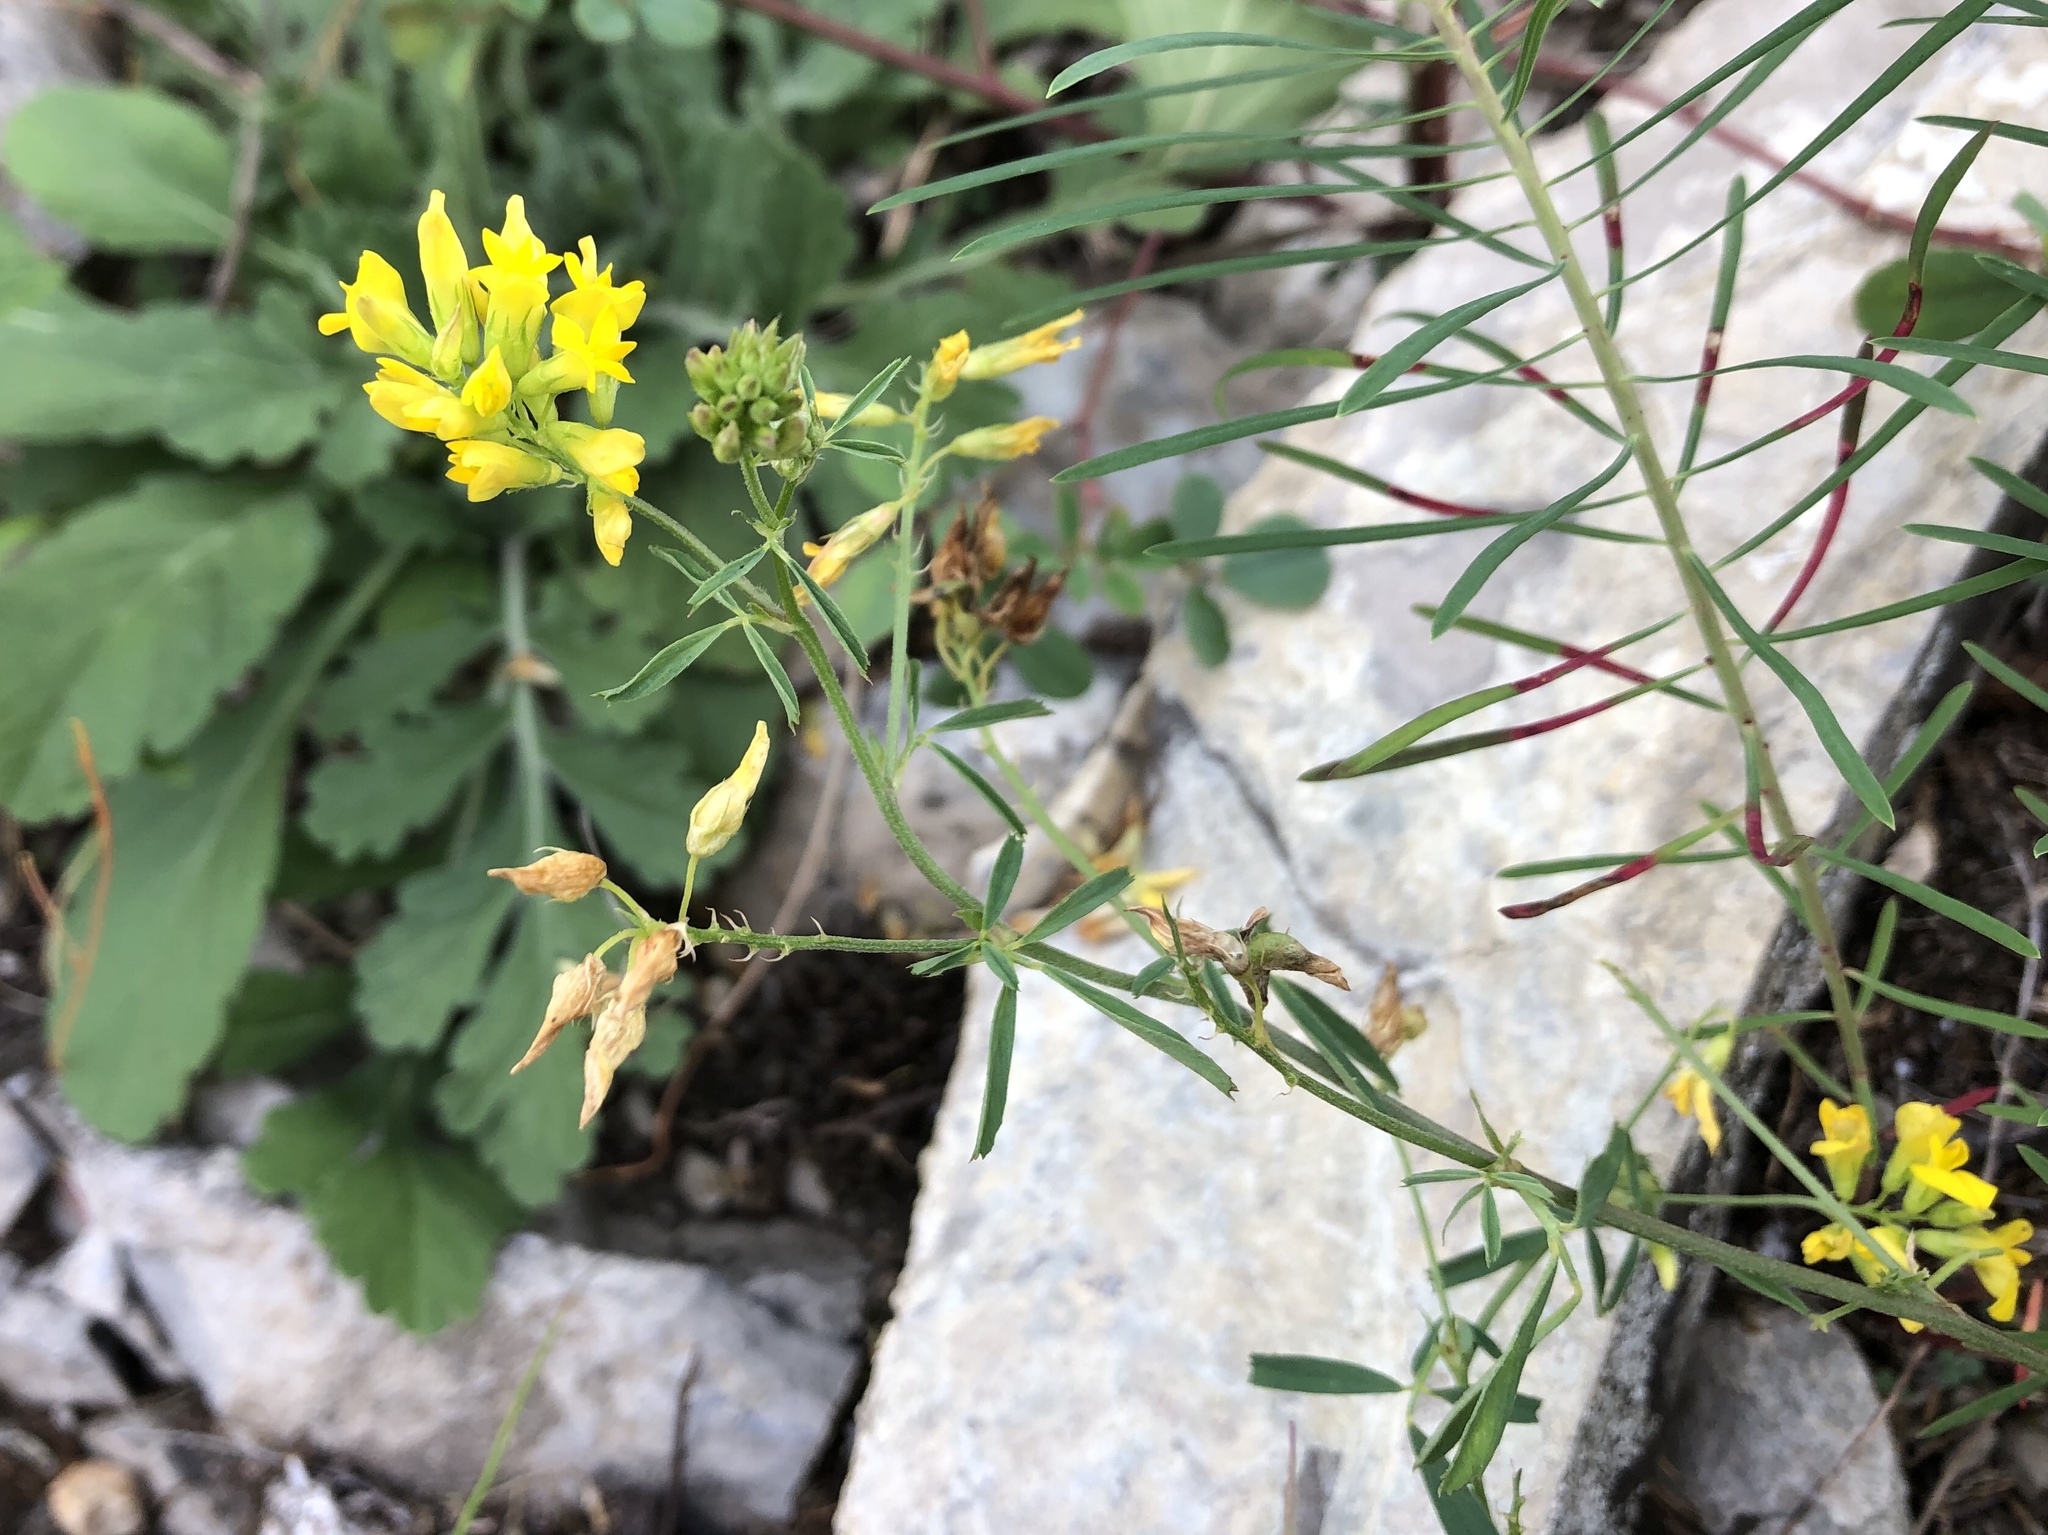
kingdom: Plantae
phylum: Tracheophyta
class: Magnoliopsida
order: Fabales
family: Fabaceae
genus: Medicago
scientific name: Medicago falcata
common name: Sickle medick
